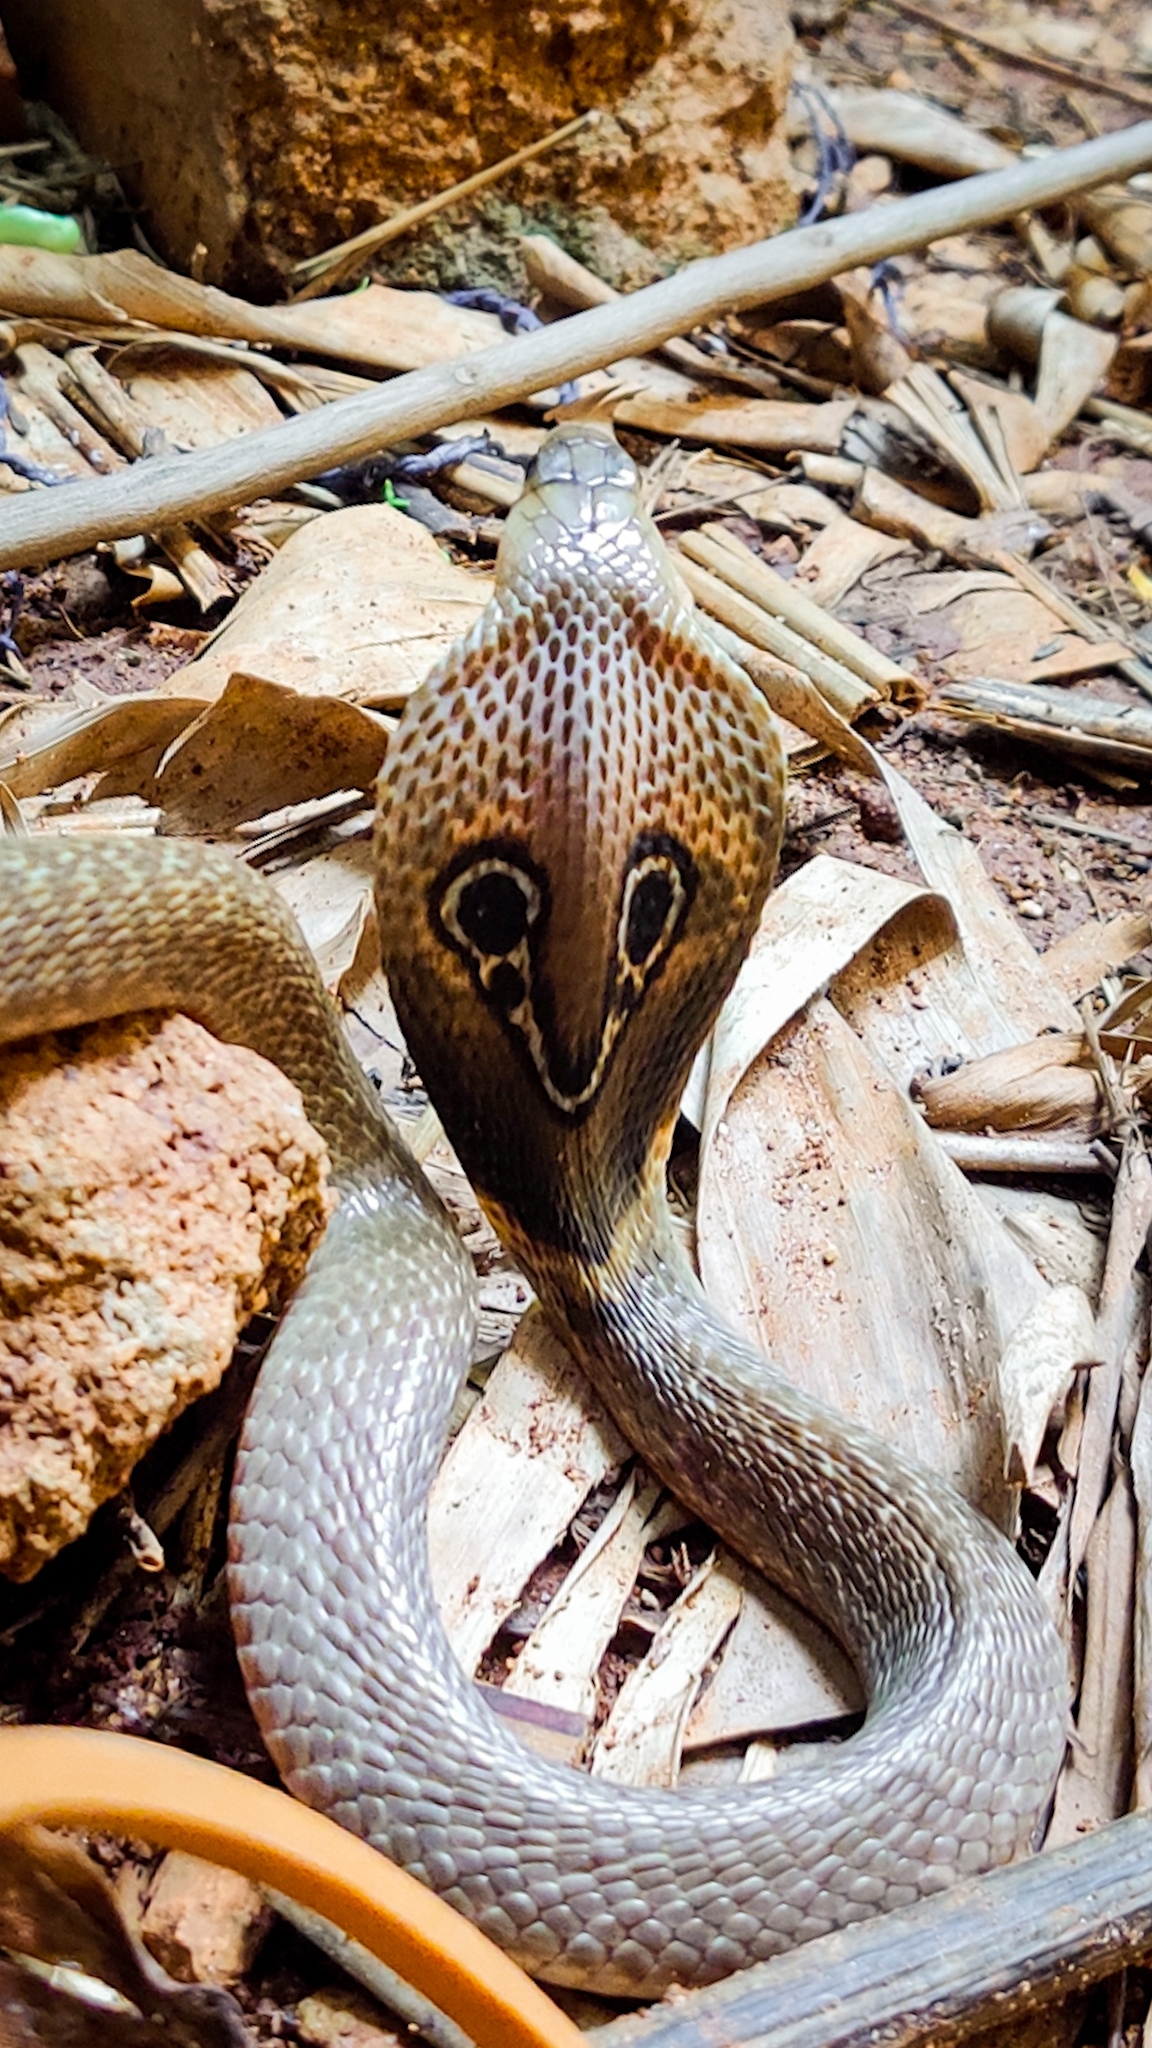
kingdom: Animalia
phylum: Chordata
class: Squamata
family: Elapidae
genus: Naja
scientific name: Naja naja
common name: Indian cobra
